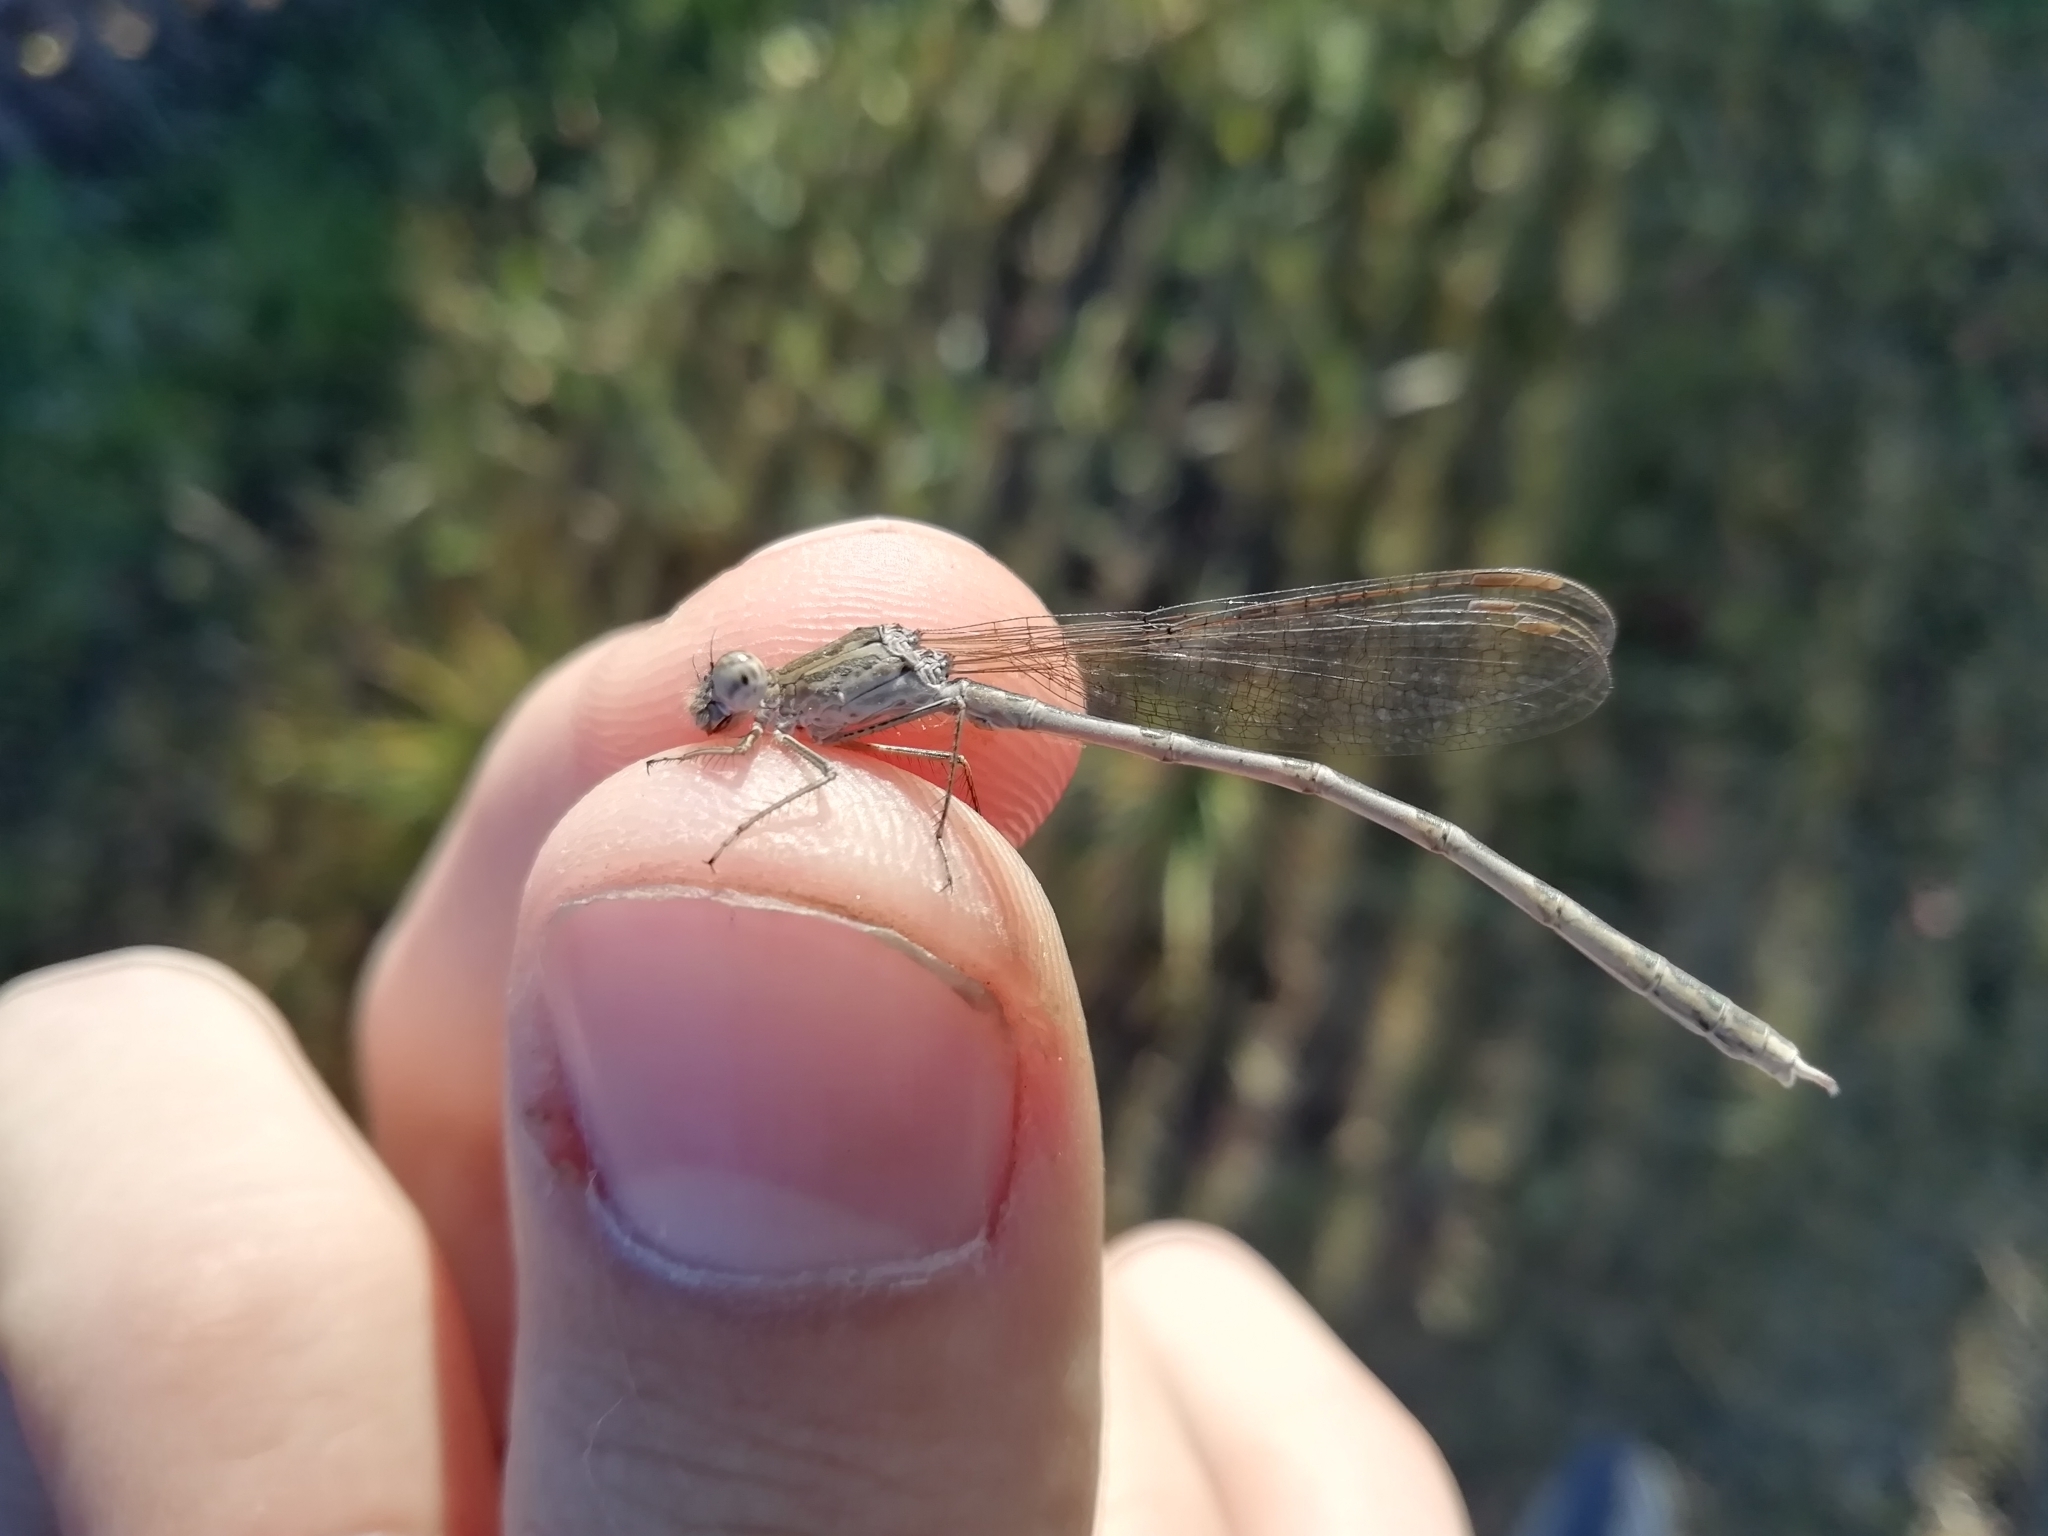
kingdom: Animalia
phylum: Arthropoda
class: Insecta
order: Odonata
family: Lestidae
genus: Sympecma
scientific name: Sympecma paedisca
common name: Siberian winter damsel
